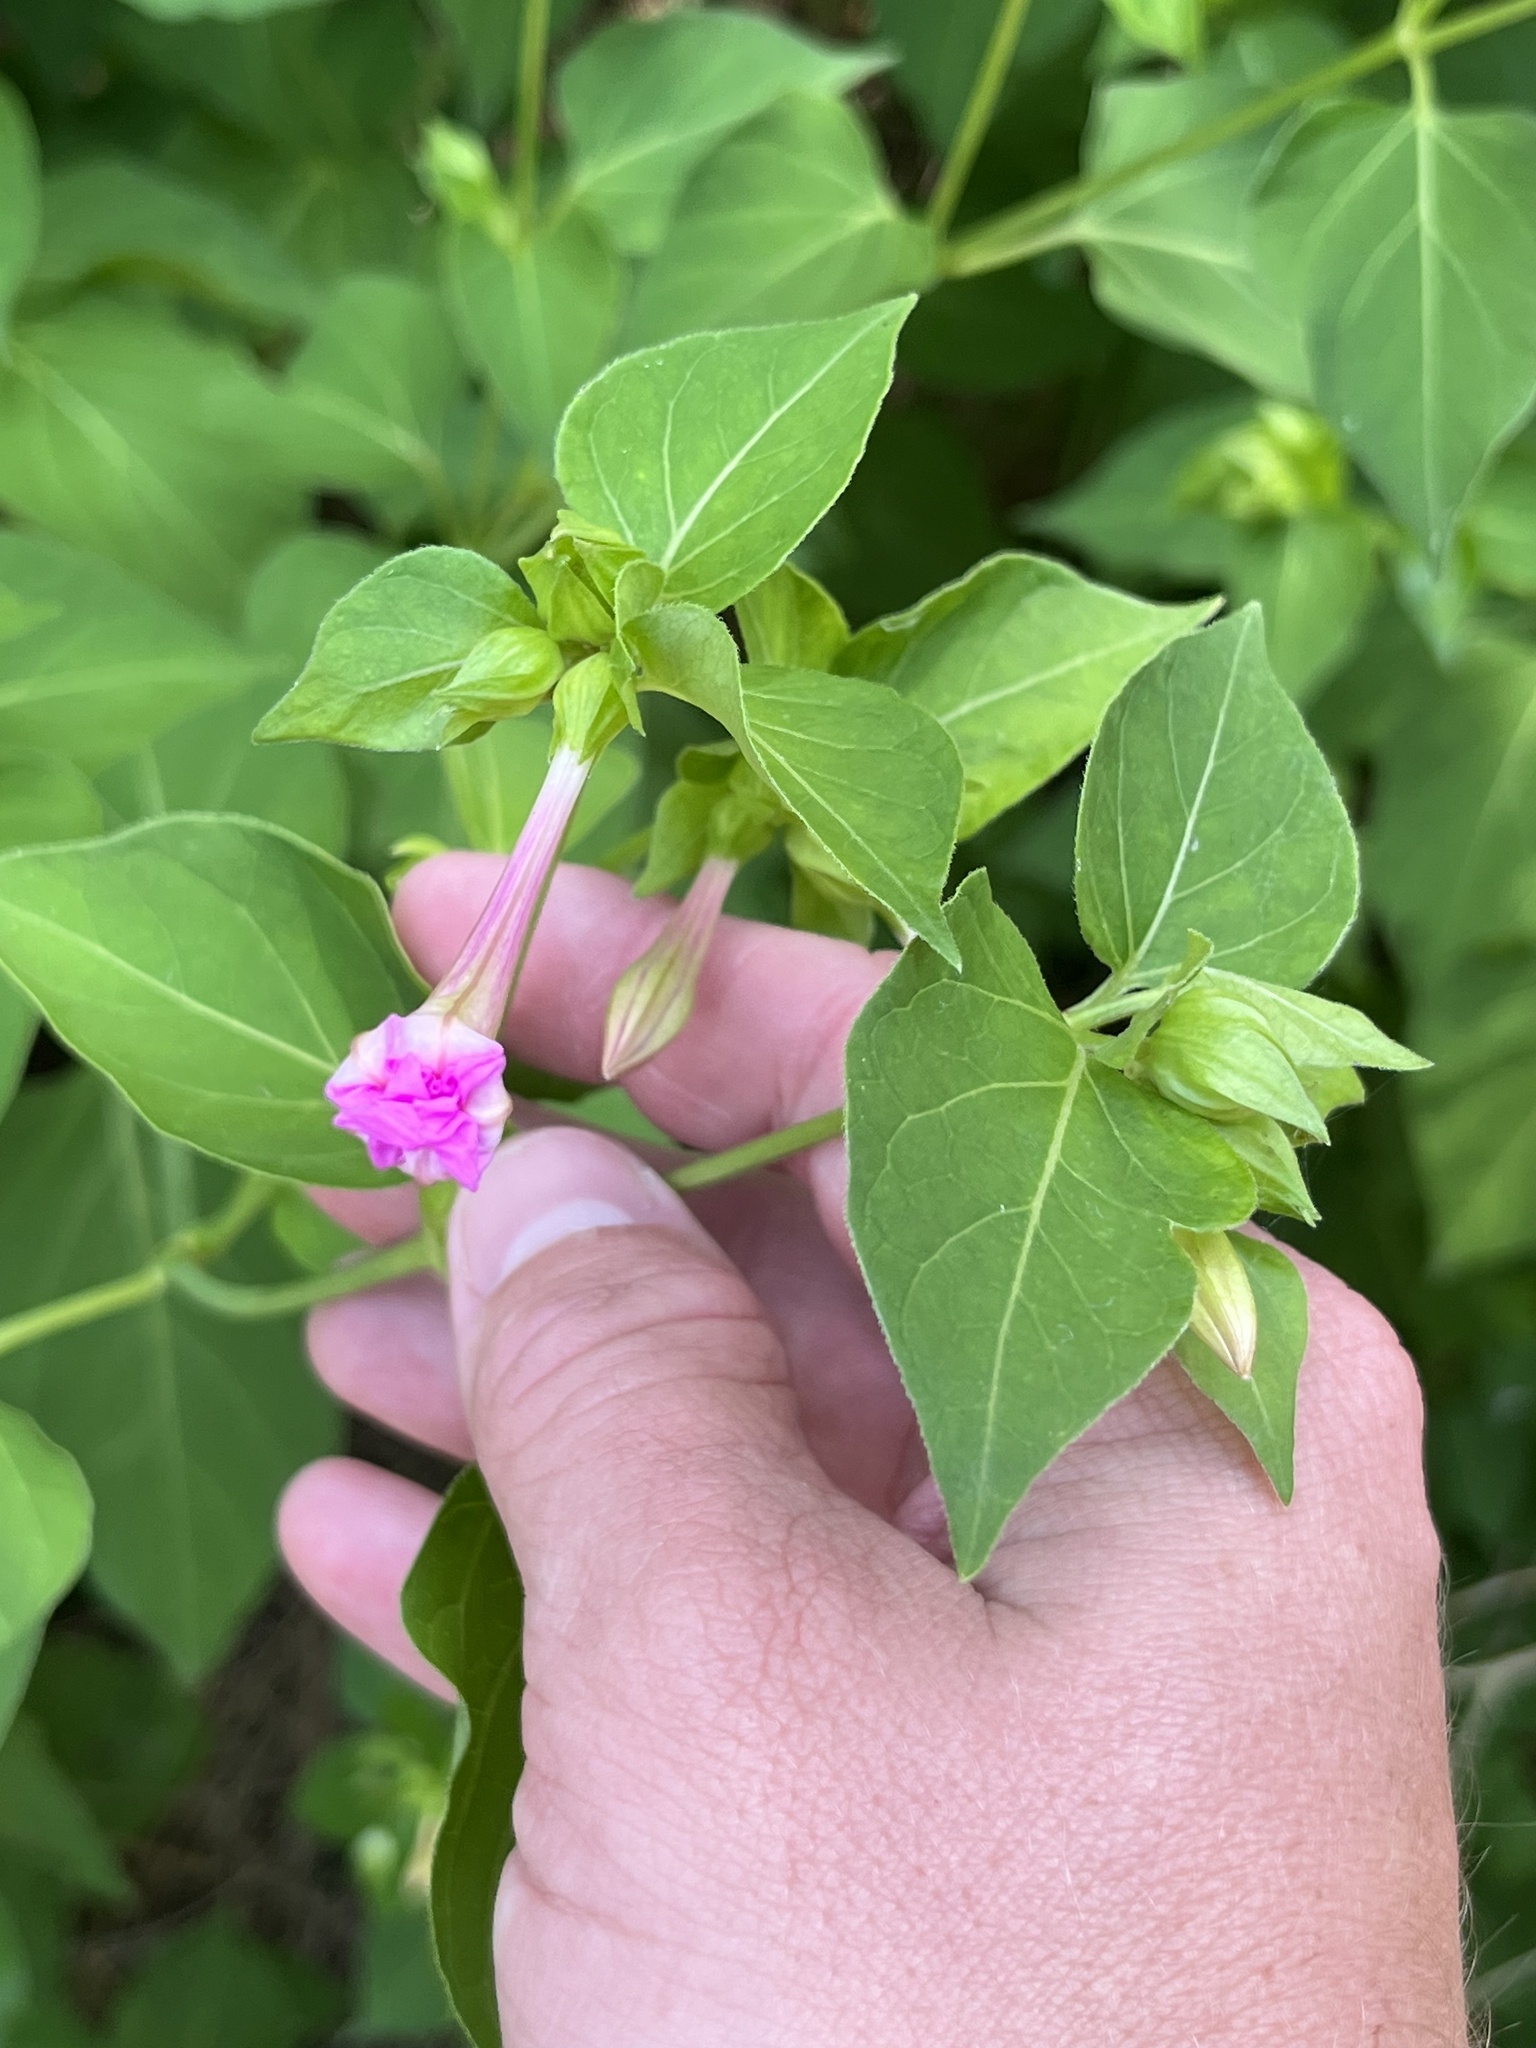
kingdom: Plantae
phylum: Tracheophyta
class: Magnoliopsida
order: Caryophyllales
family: Nyctaginaceae
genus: Mirabilis
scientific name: Mirabilis jalapa
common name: Marvel-of-peru
